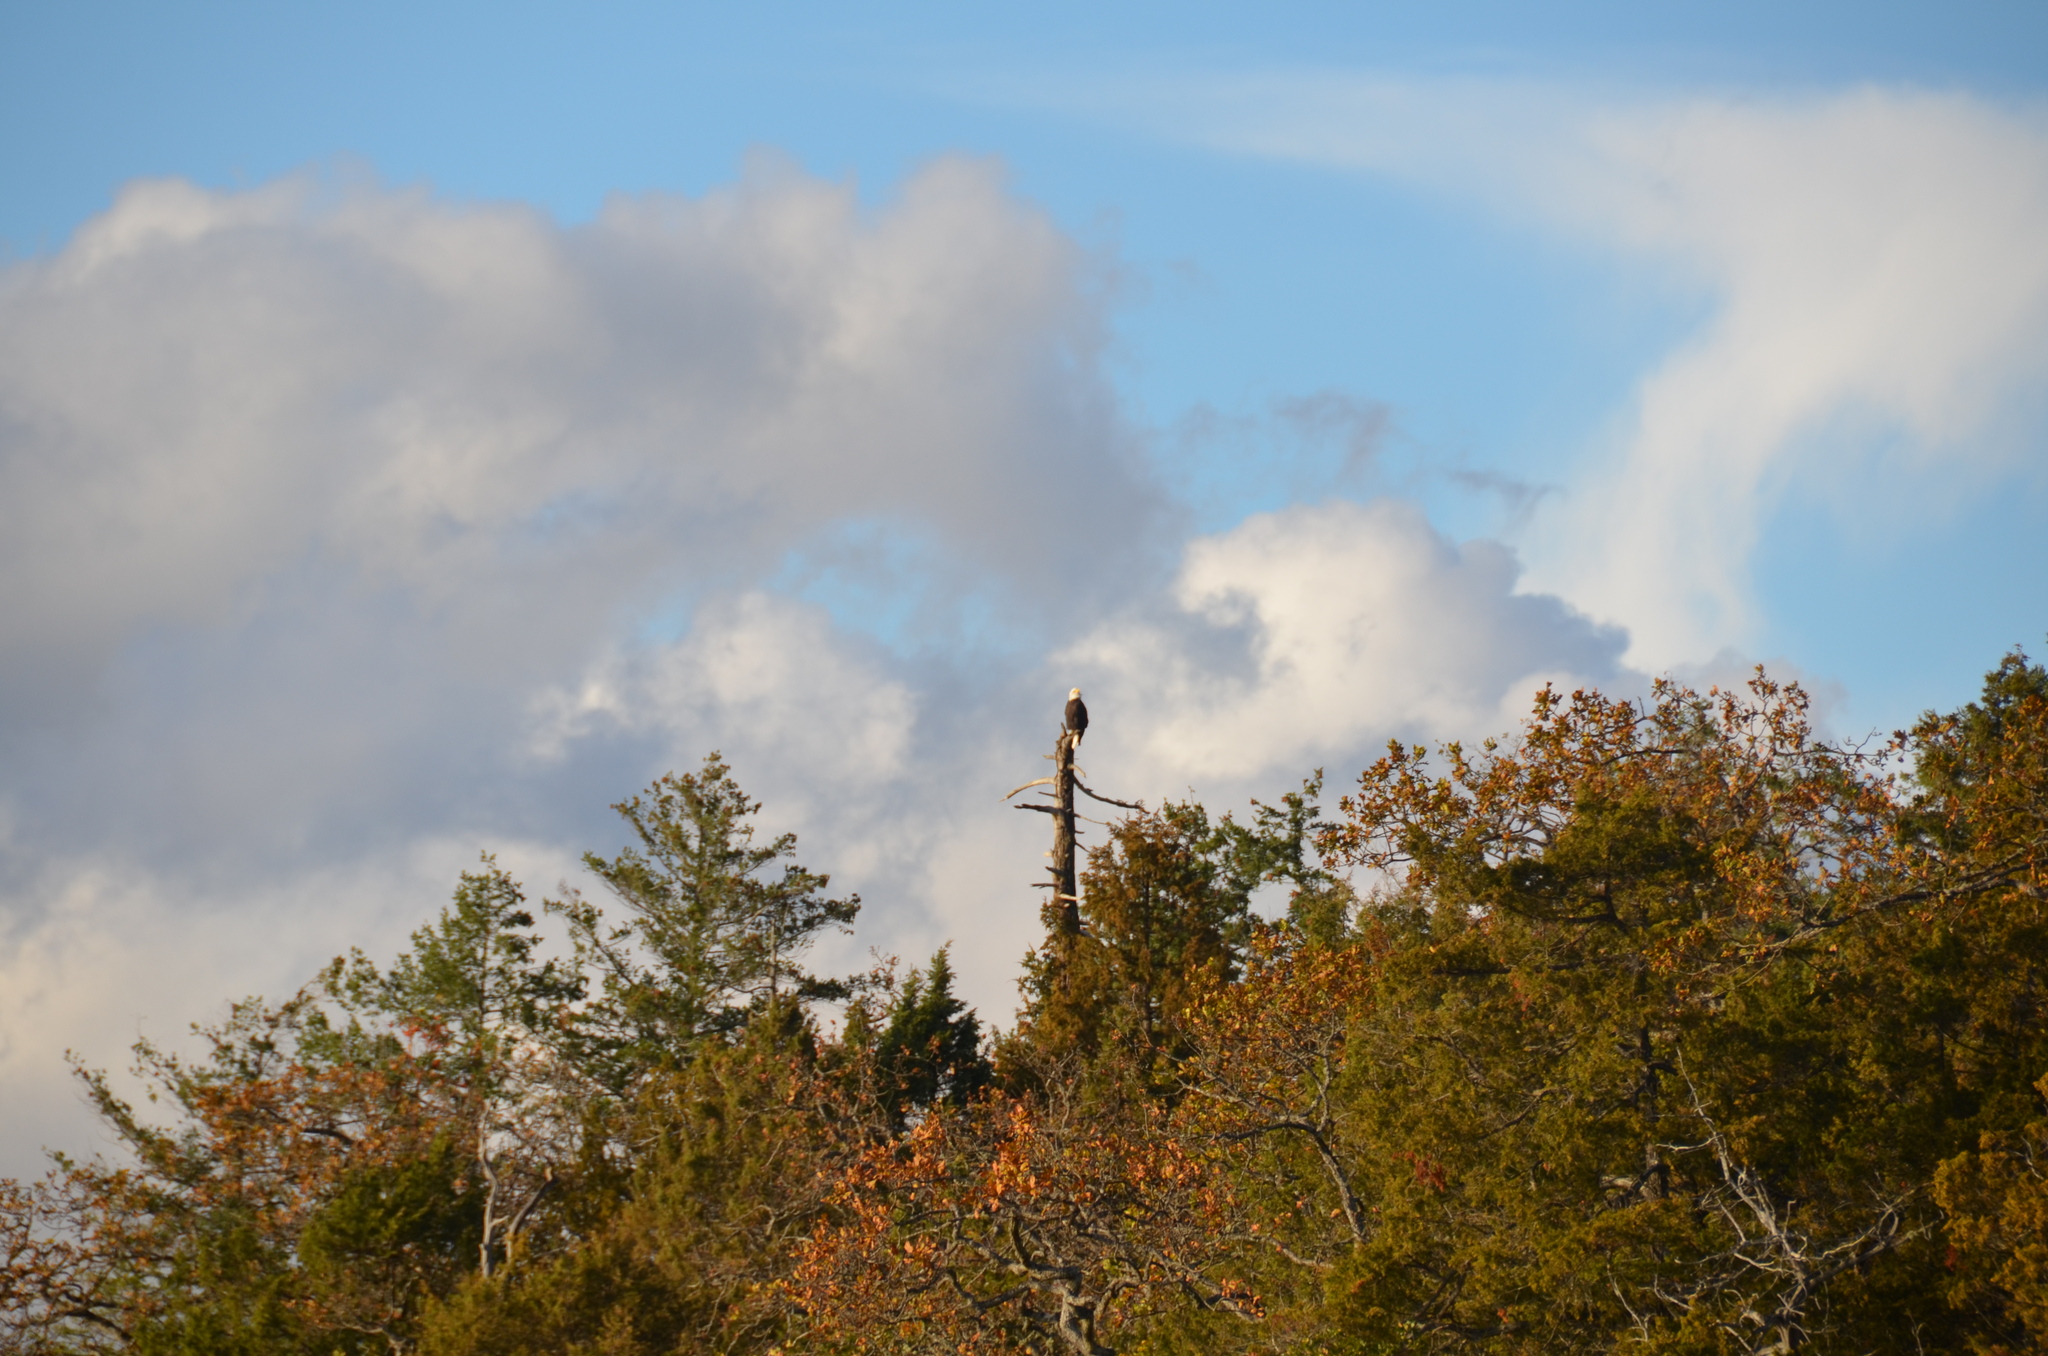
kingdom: Animalia
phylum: Chordata
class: Aves
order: Accipitriformes
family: Accipitridae
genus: Haliaeetus
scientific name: Haliaeetus leucocephalus
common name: Bald eagle
